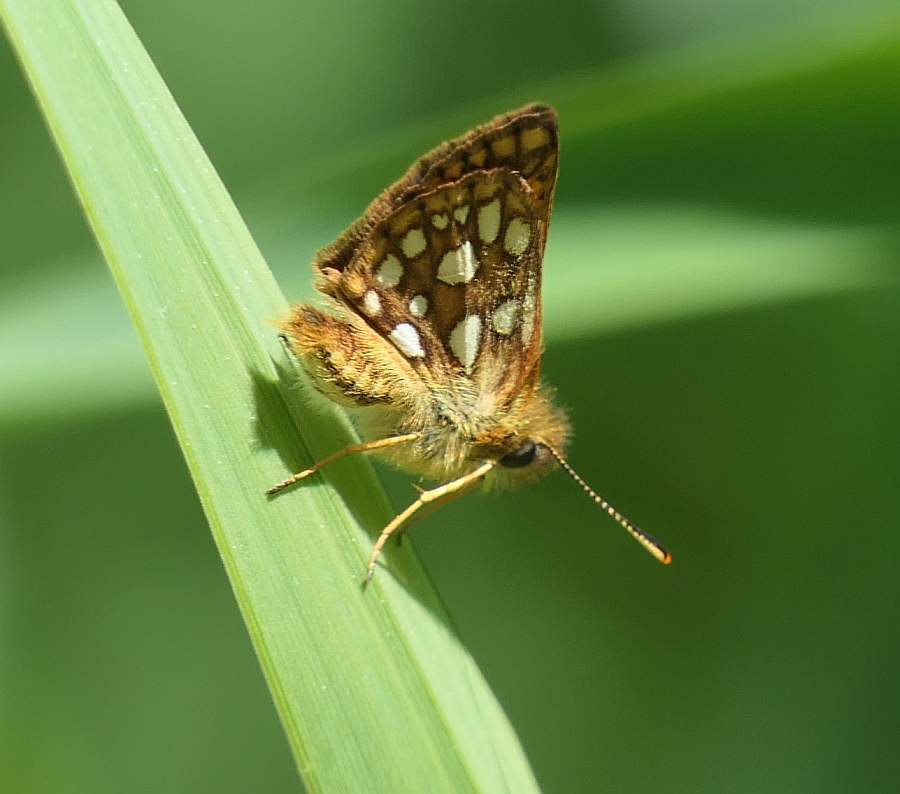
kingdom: Animalia
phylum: Arthropoda
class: Insecta
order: Lepidoptera
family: Hesperiidae
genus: Carterocephalus
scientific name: Carterocephalus mandan
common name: Arctic skipperling
